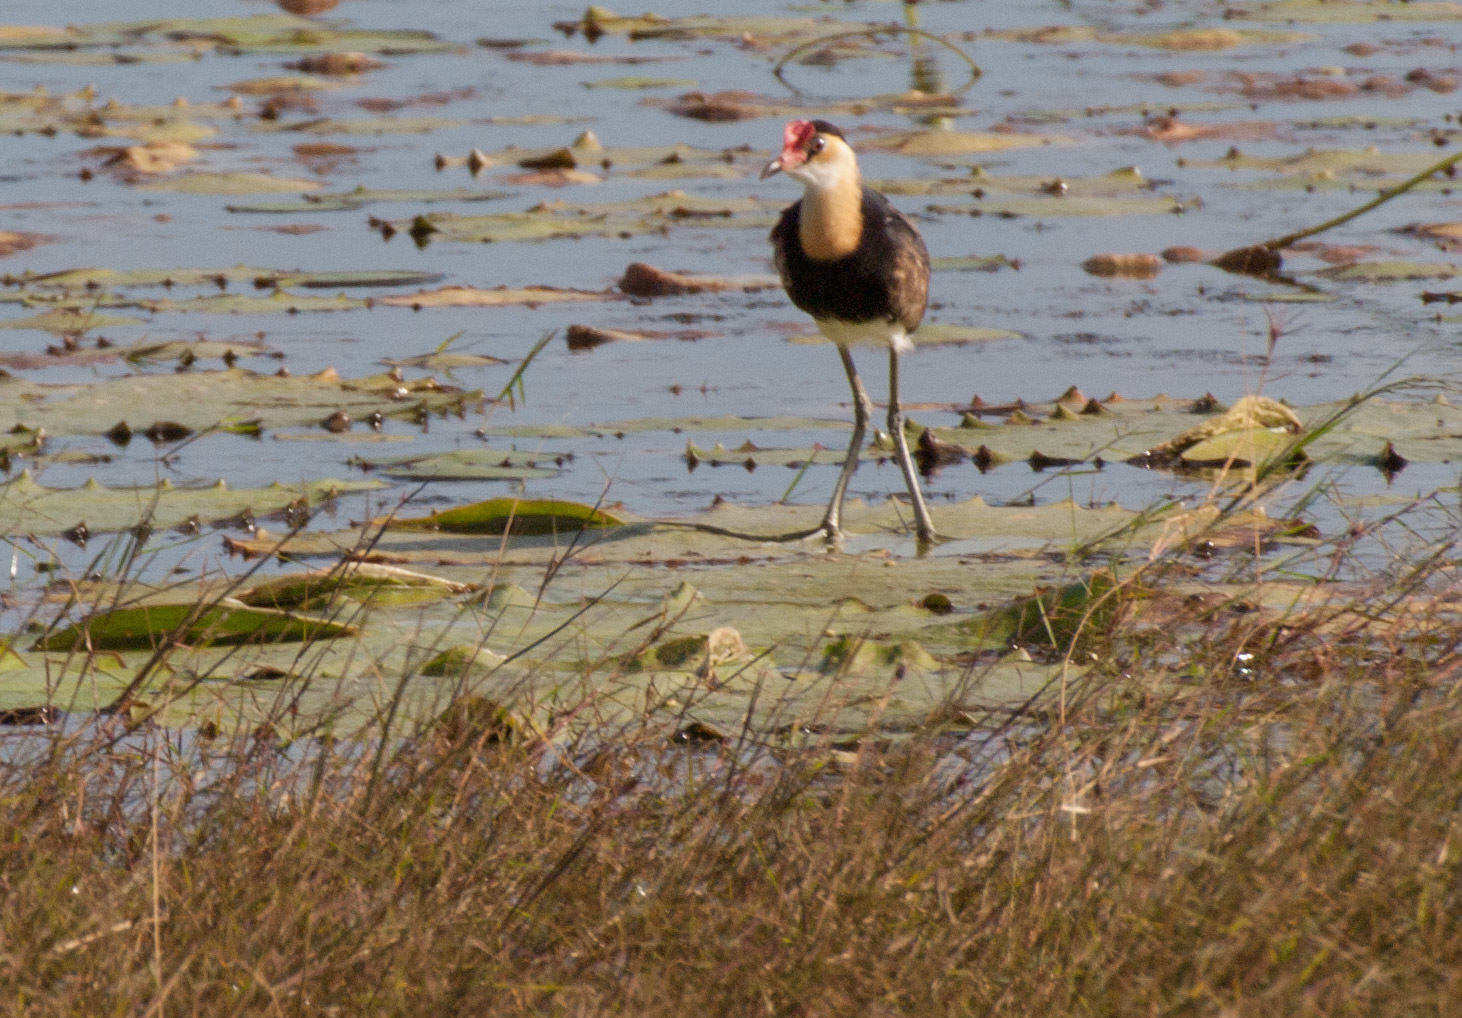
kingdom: Animalia
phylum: Chordata
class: Aves
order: Charadriiformes
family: Jacanidae
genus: Irediparra
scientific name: Irediparra gallinacea
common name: Comb-crested jacana
